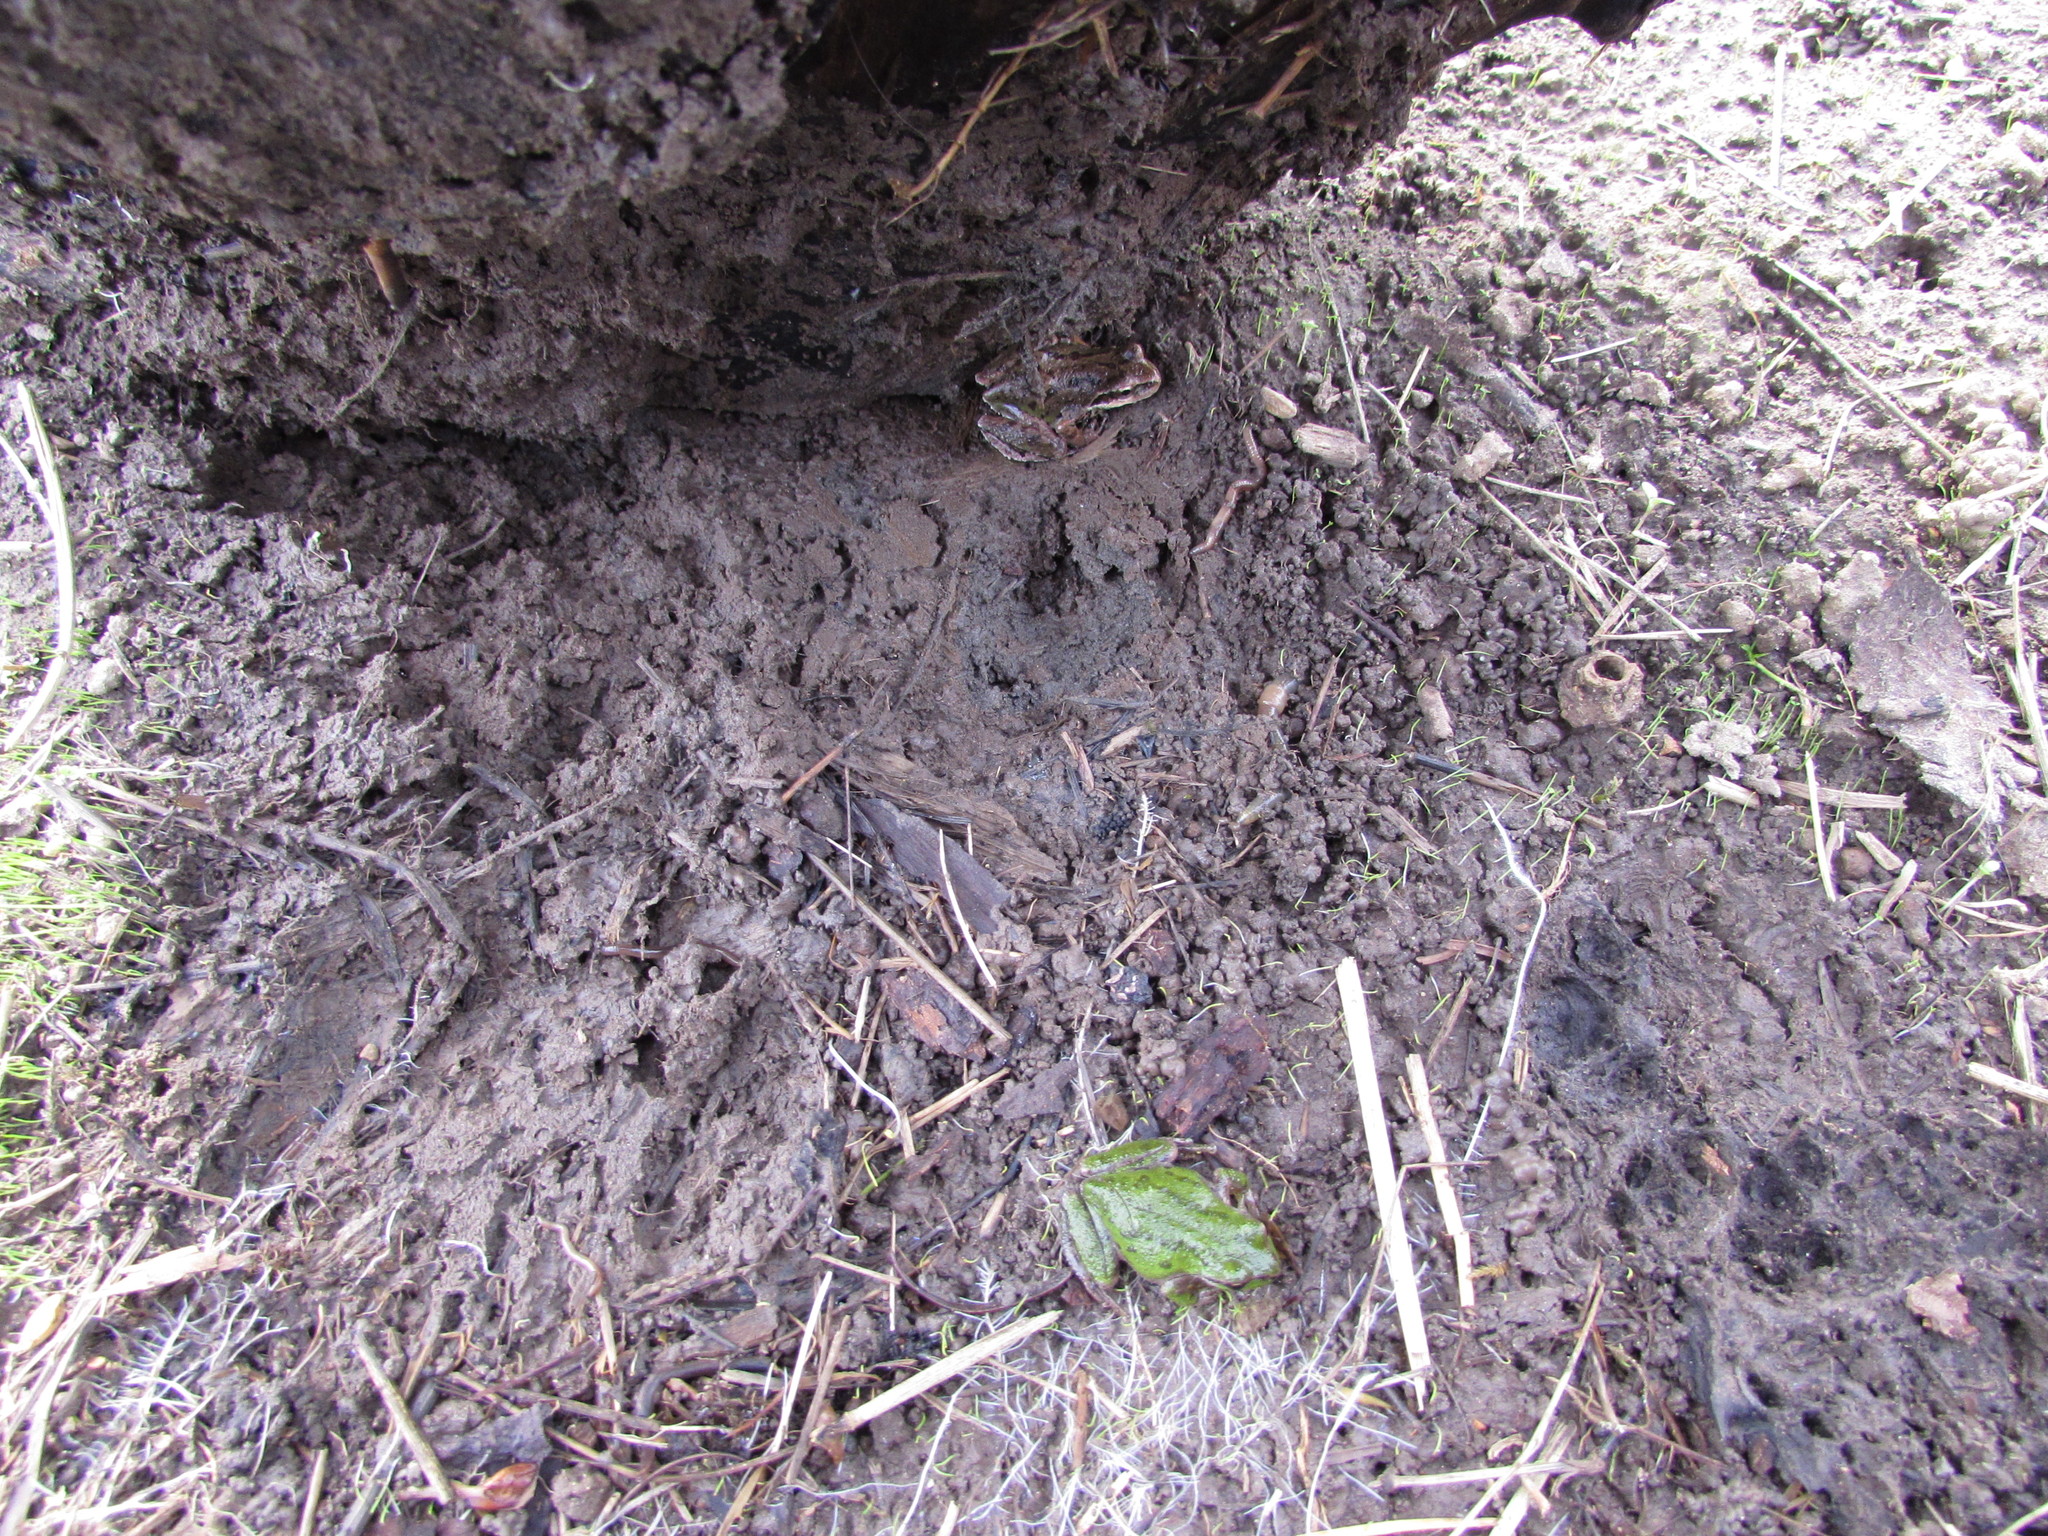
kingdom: Animalia
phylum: Chordata
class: Amphibia
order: Anura
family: Hylidae
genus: Pseudacris
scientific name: Pseudacris regilla
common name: Pacific chorus frog
